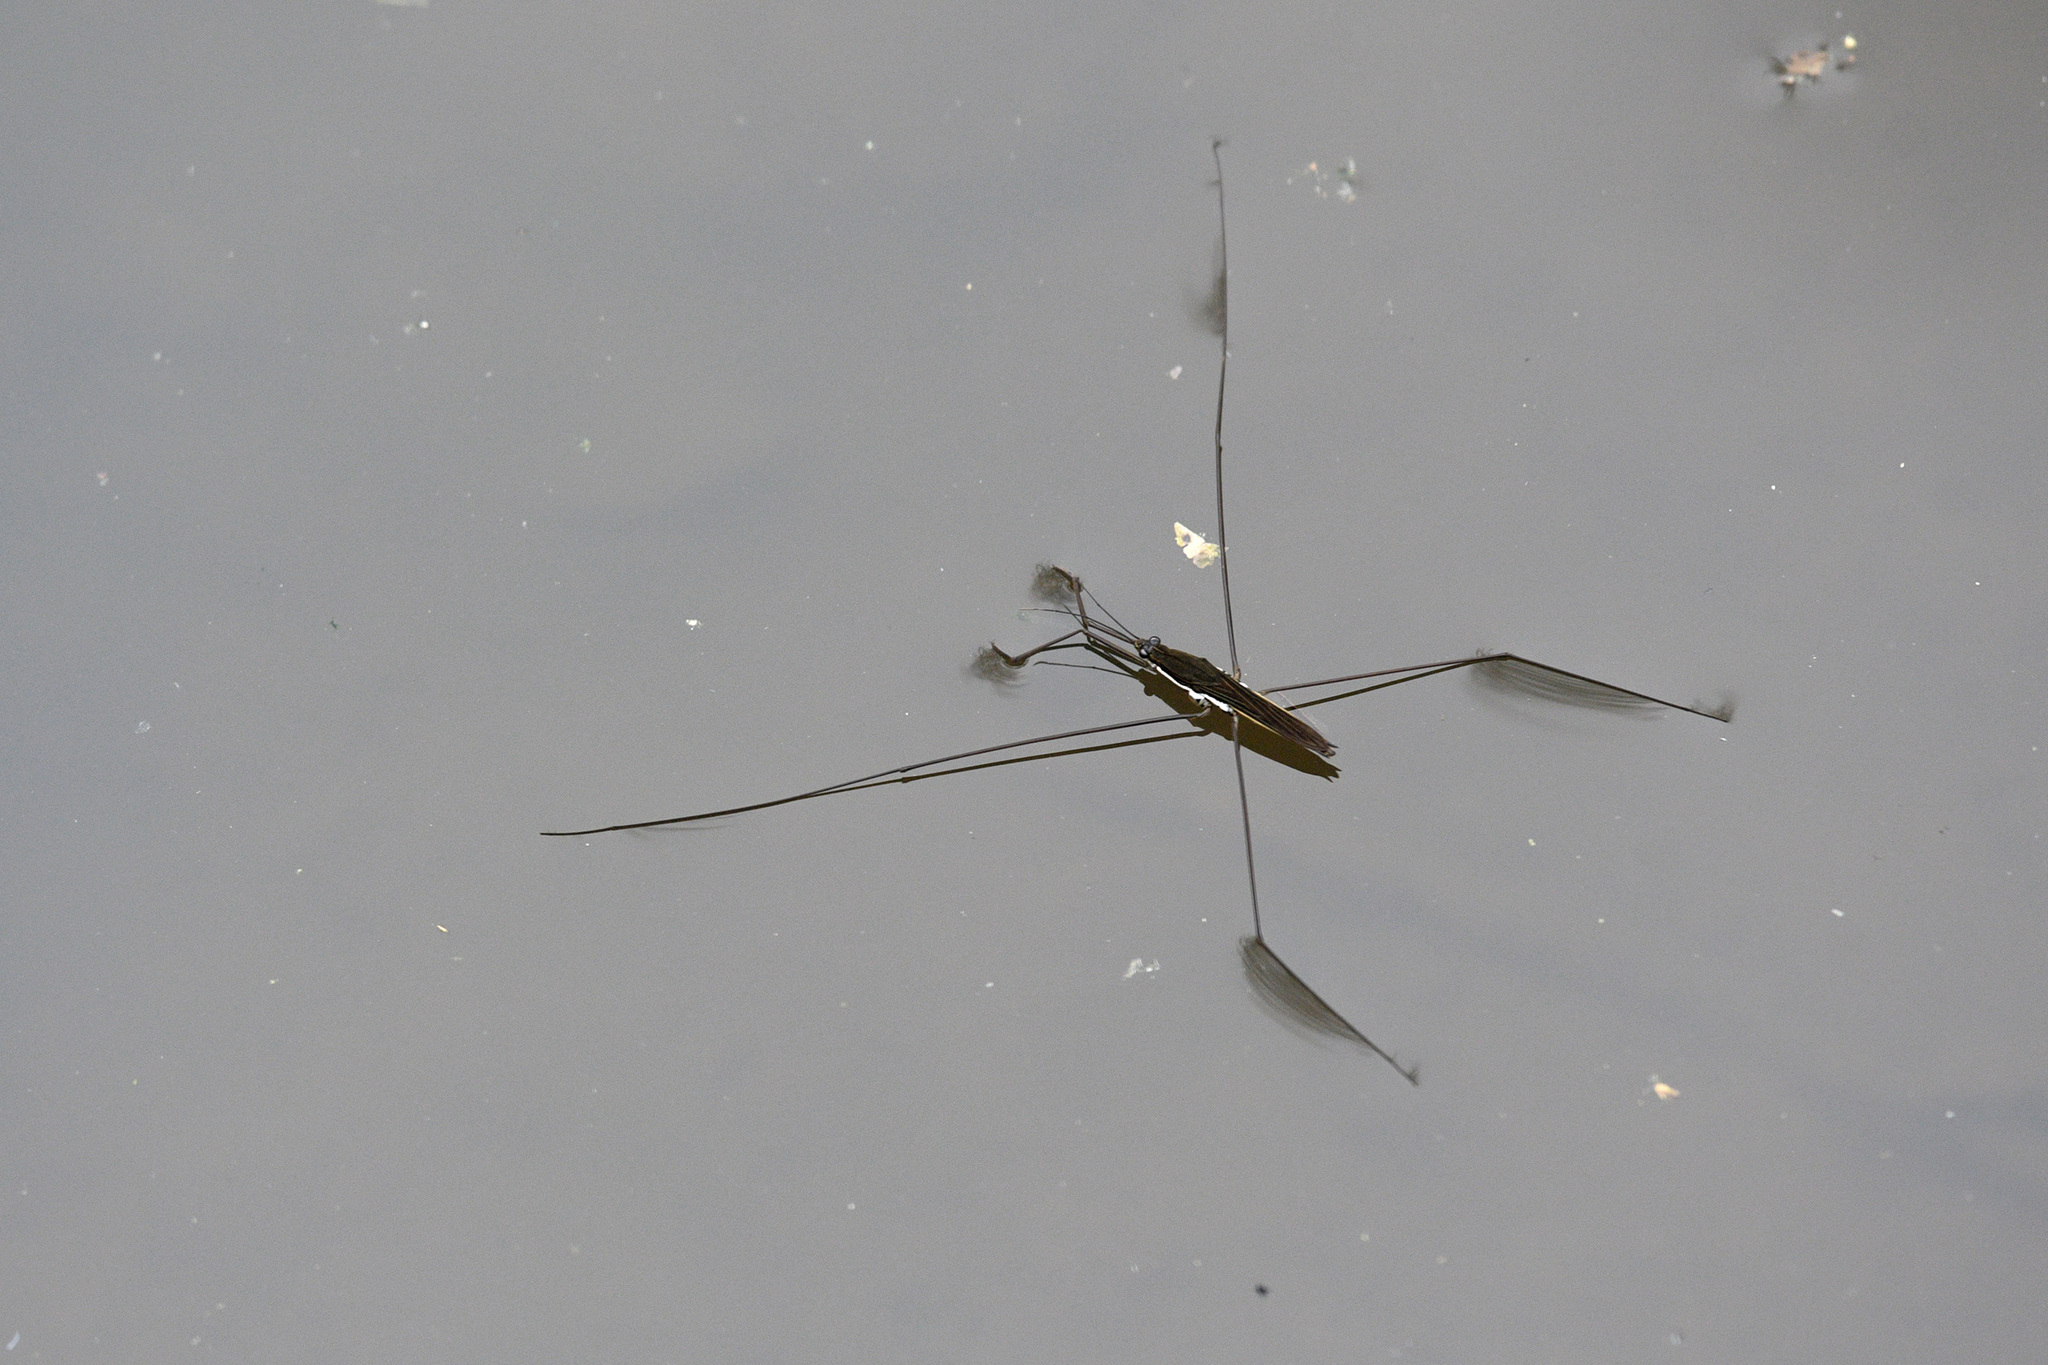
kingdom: Animalia
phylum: Arthropoda
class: Insecta
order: Hemiptera
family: Gerridae
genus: Aquarius
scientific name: Aquarius elongatus
